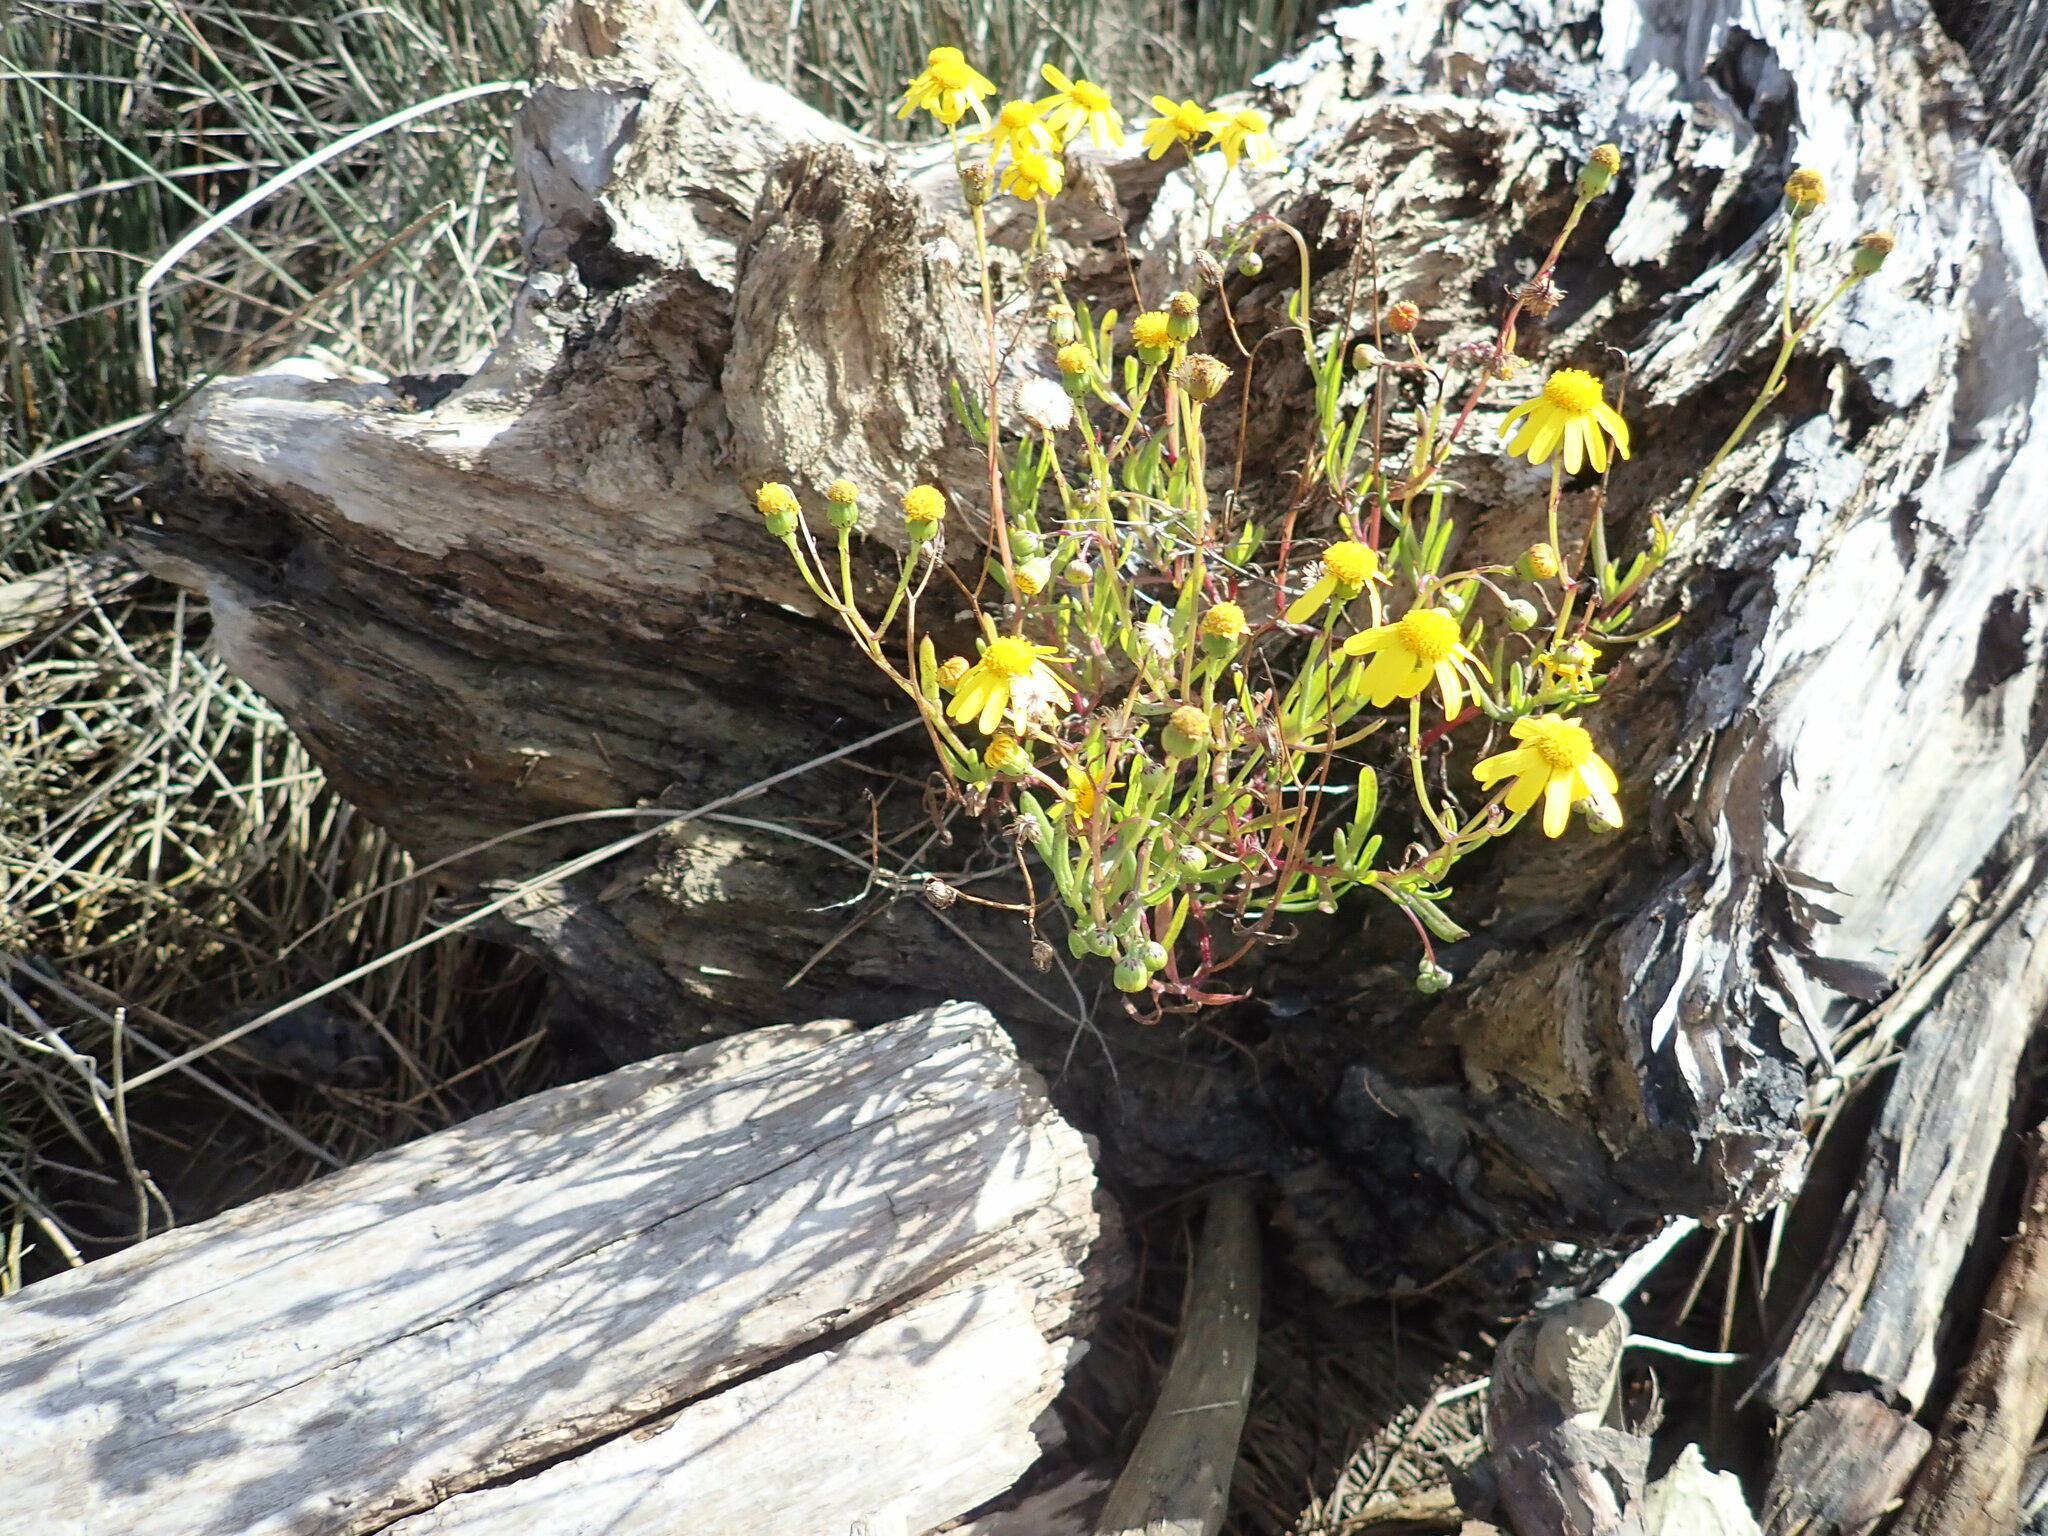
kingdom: Plantae
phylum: Tracheophyta
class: Magnoliopsida
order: Asterales
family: Asteraceae
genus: Senecio
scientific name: Senecio skirrhodon
